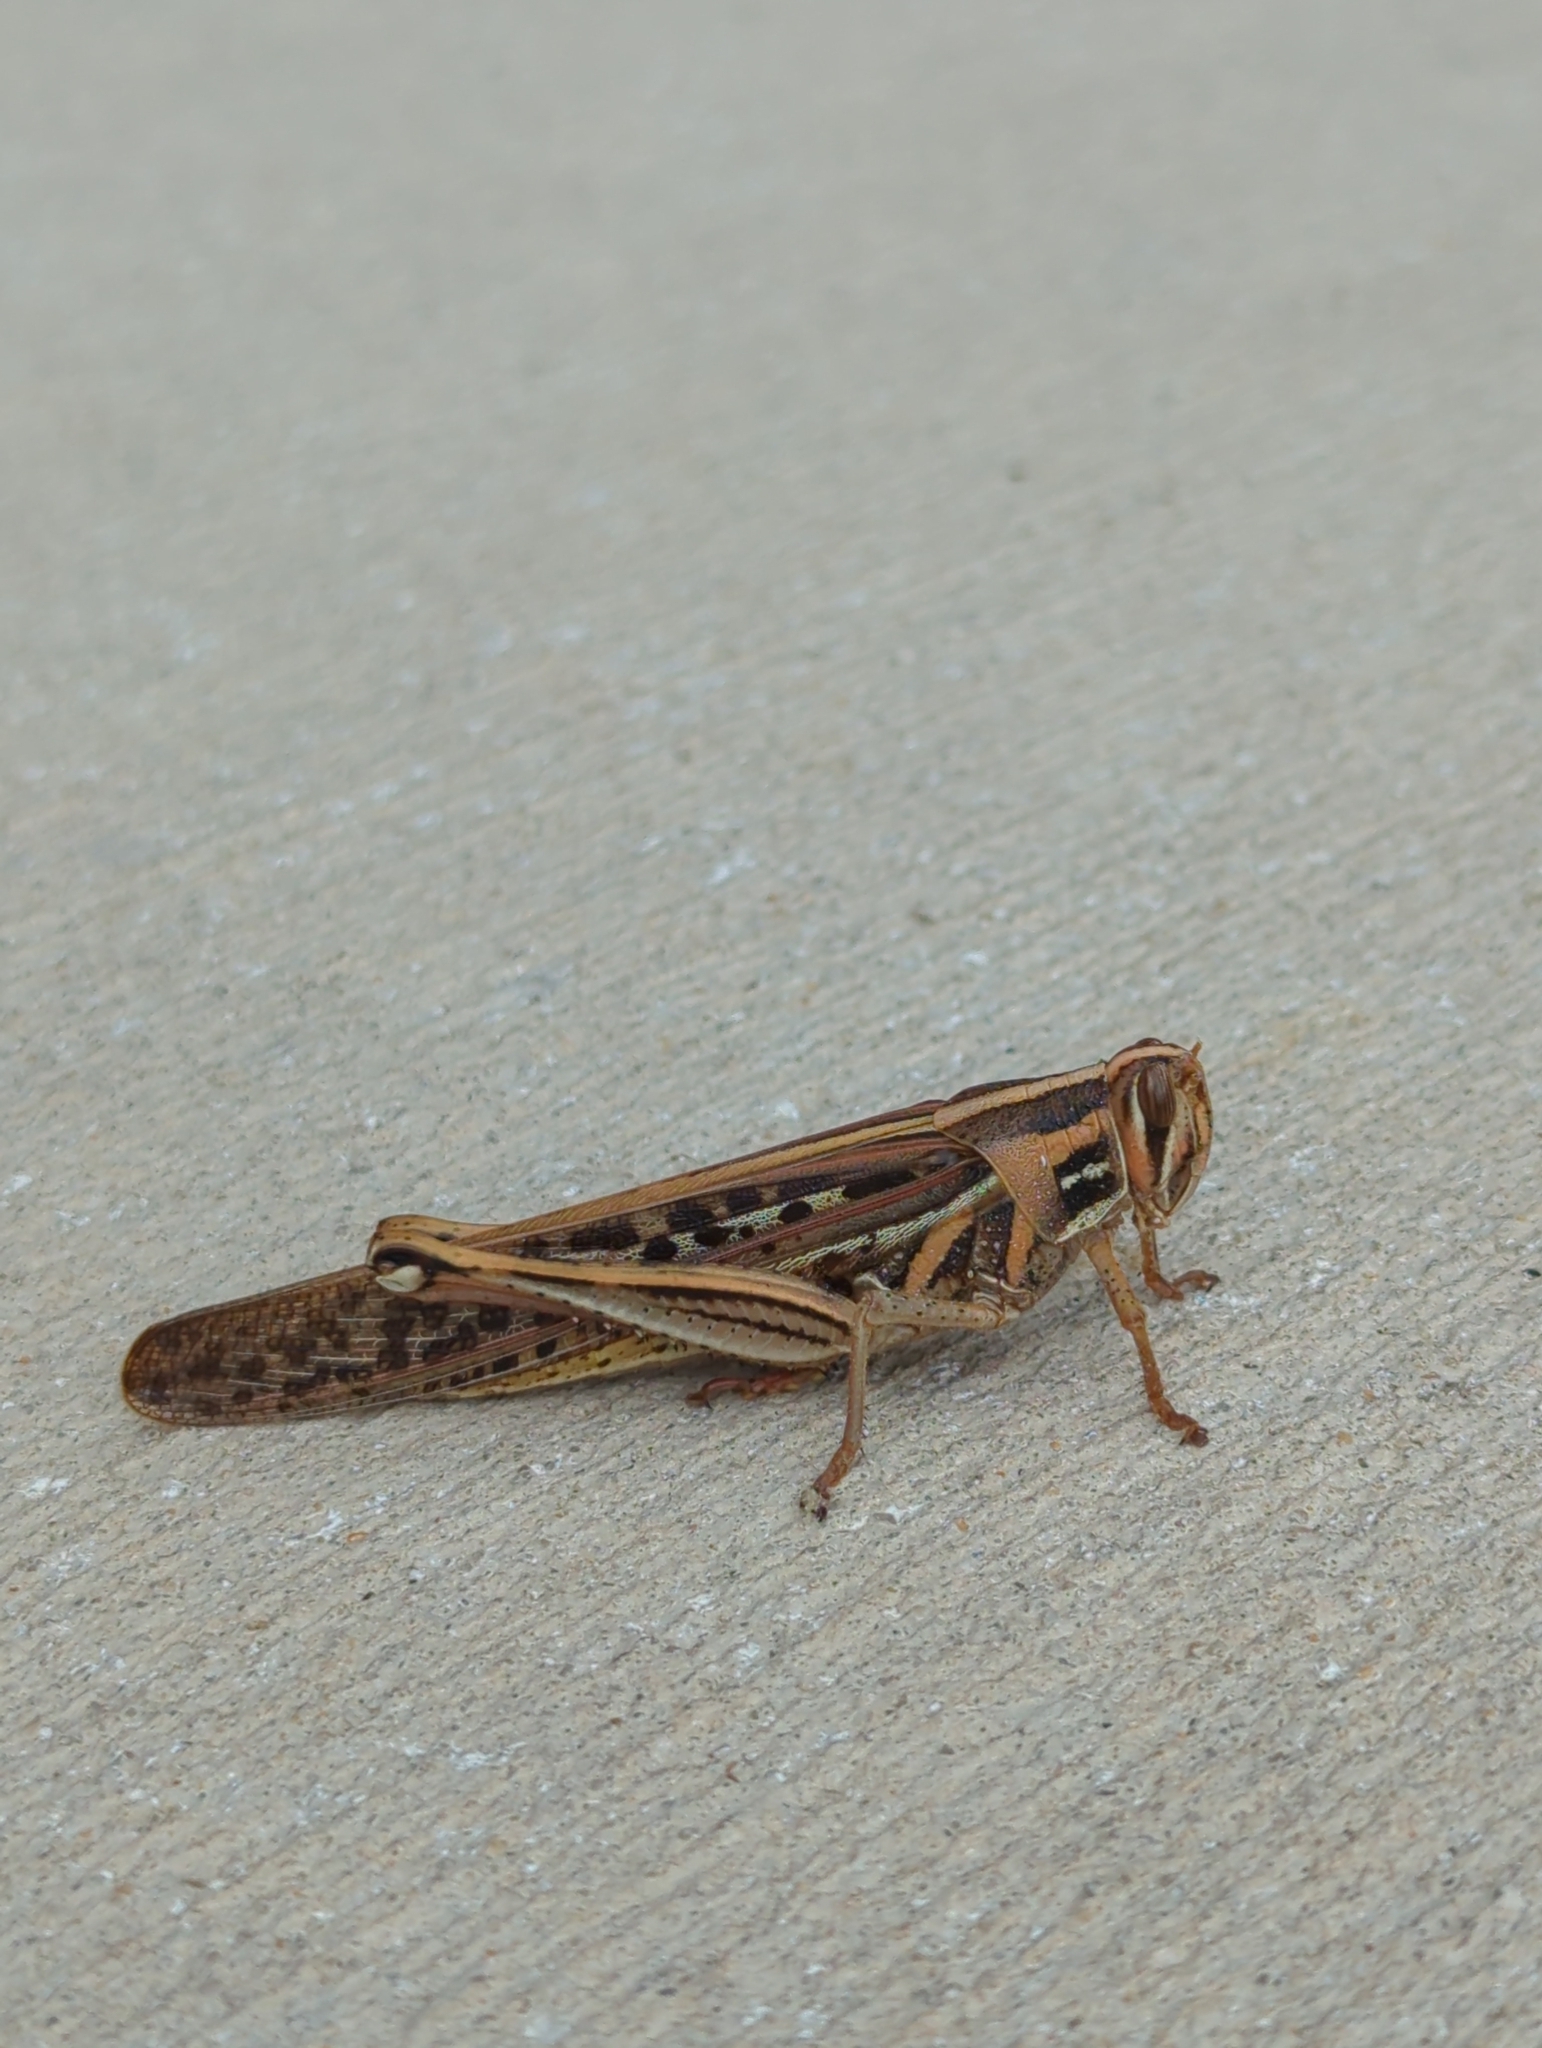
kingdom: Animalia
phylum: Arthropoda
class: Insecta
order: Orthoptera
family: Acrididae
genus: Schistocerca
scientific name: Schistocerca americana
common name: American bird locust
